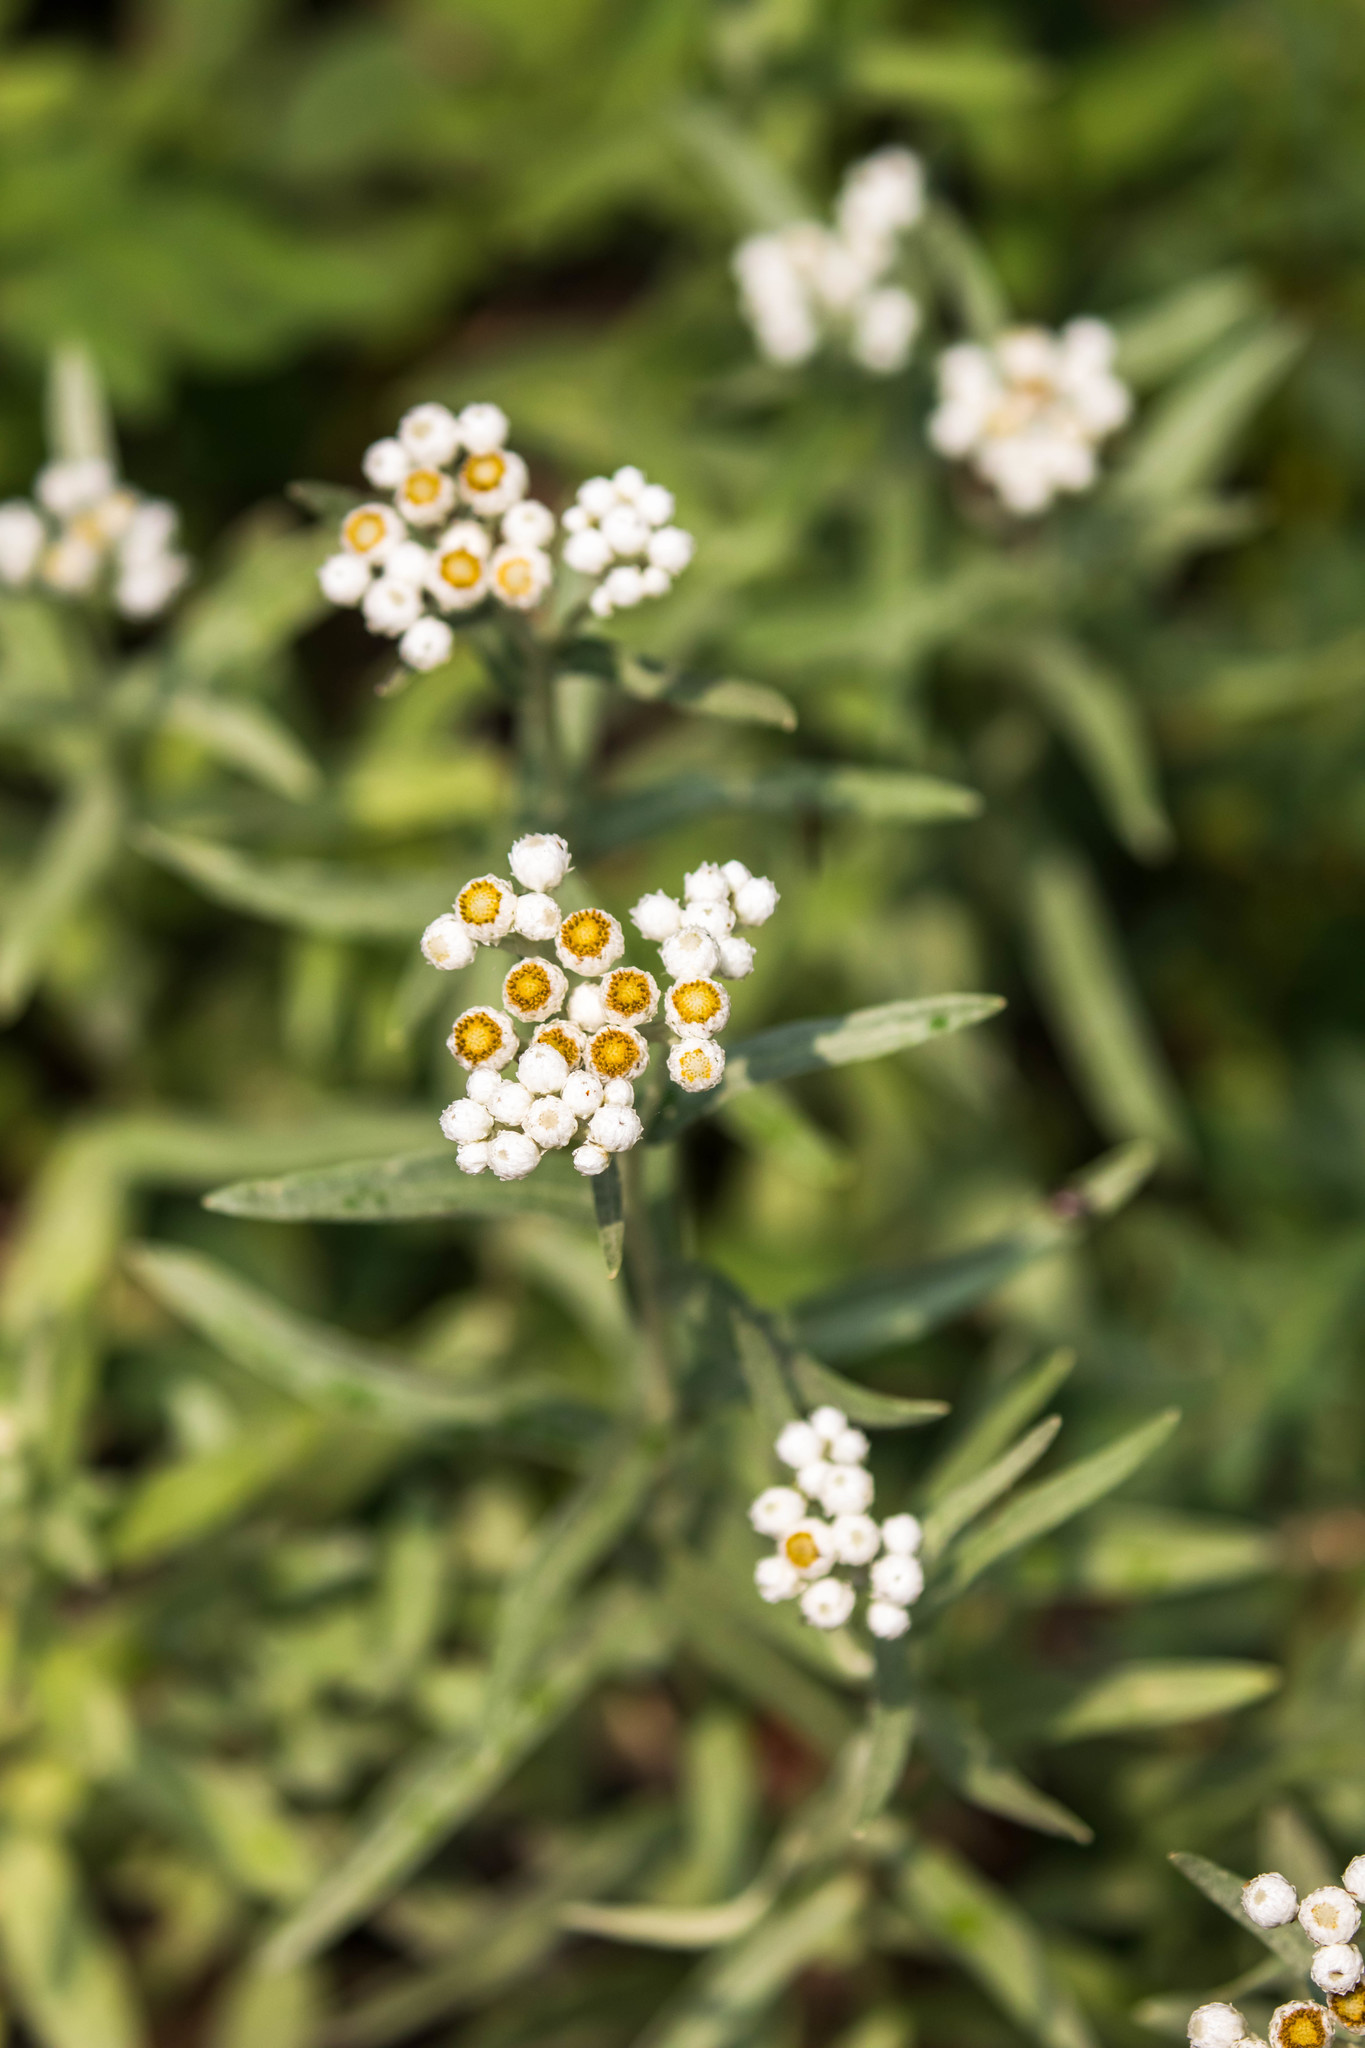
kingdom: Plantae
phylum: Tracheophyta
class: Magnoliopsida
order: Asterales
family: Asteraceae
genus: Anaphalis
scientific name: Anaphalis margaritacea
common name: Pearly everlasting
